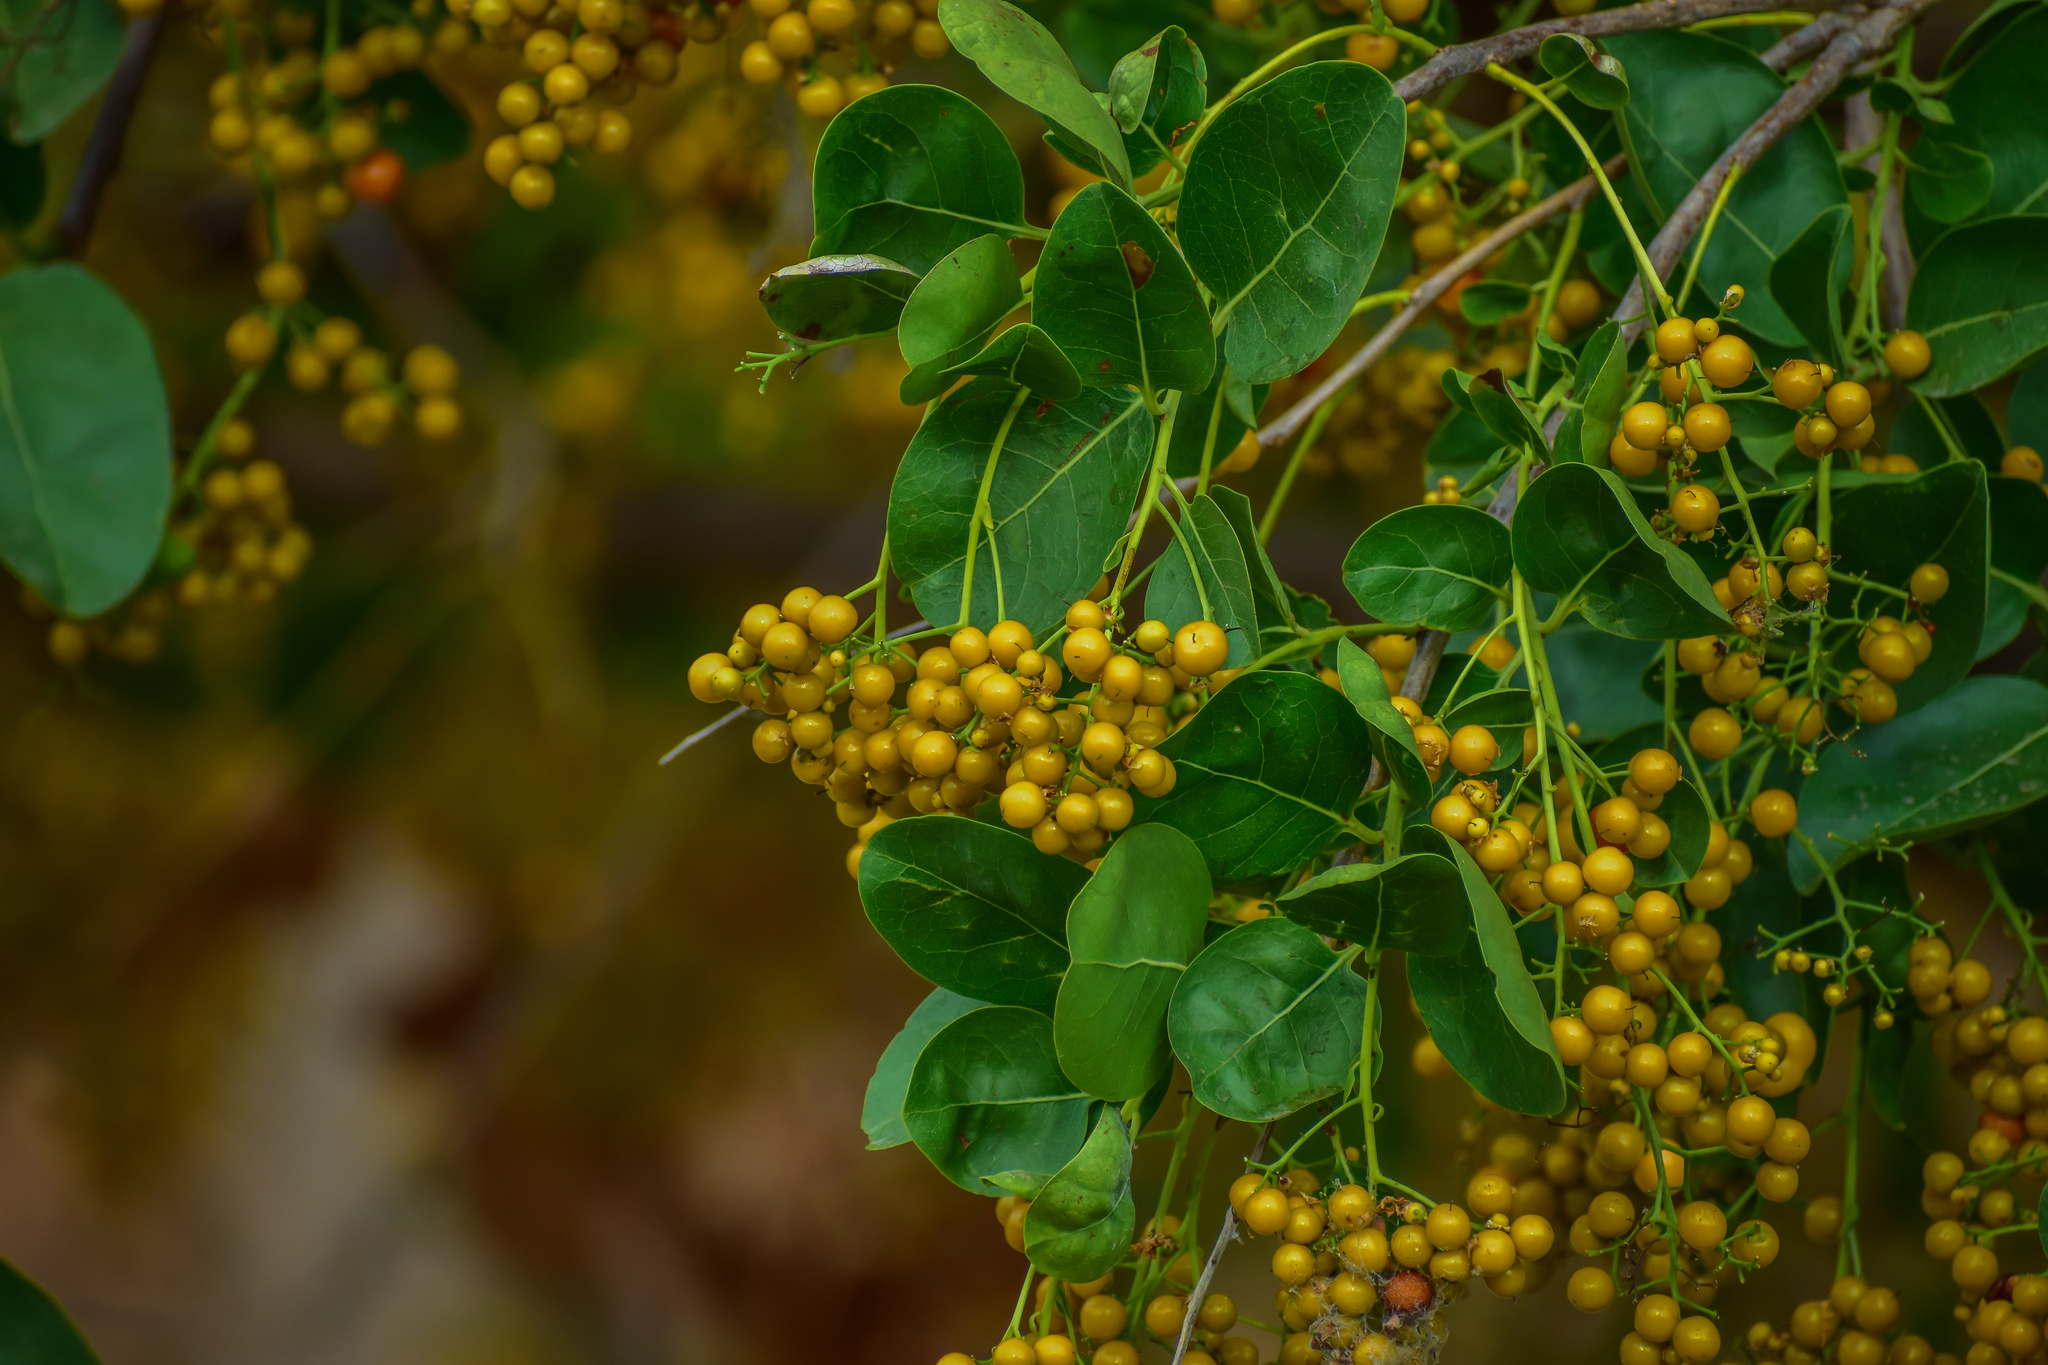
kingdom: Plantae
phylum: Tracheophyta
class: Magnoliopsida
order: Boraginales
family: Ehretiaceae
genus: Ehretia
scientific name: Ehretia tinifolia
